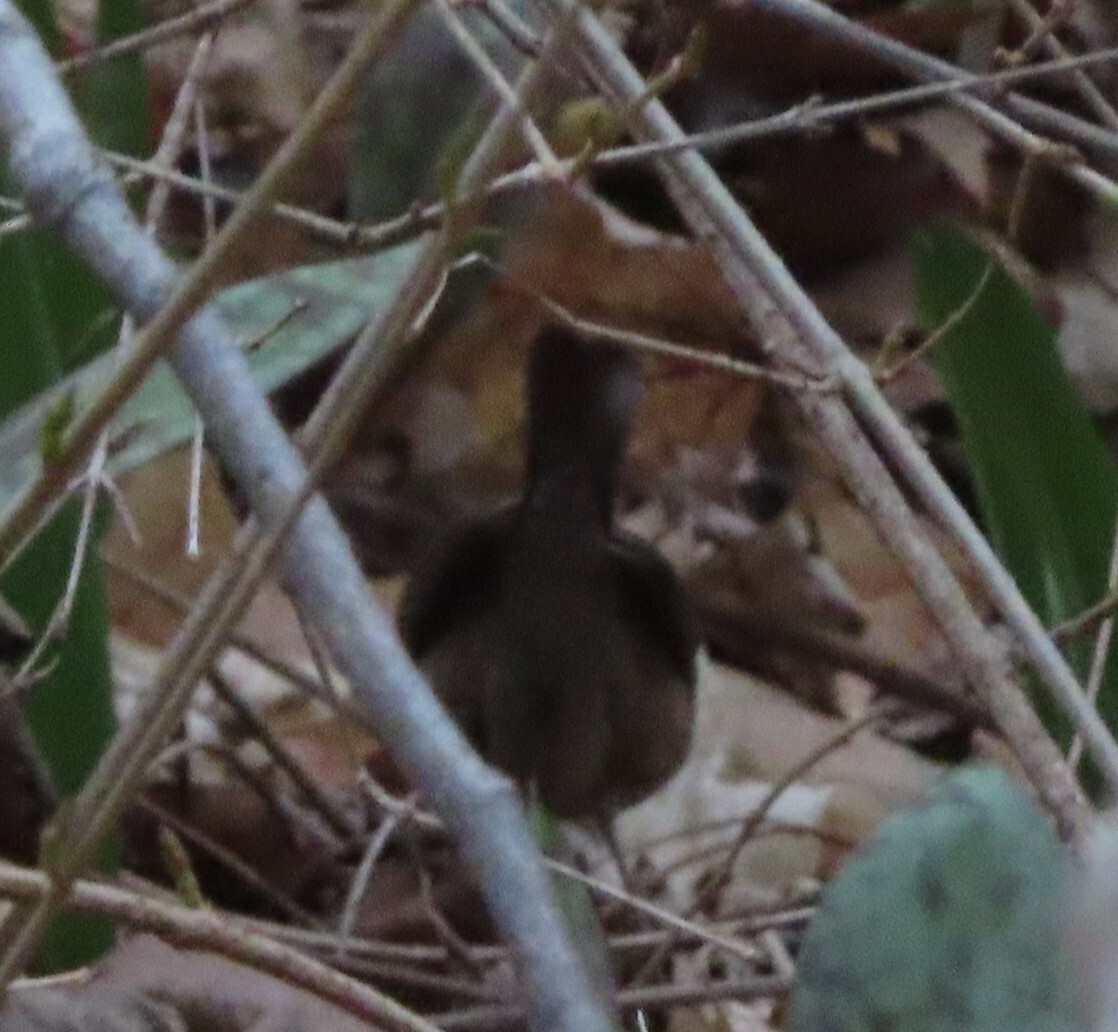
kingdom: Animalia
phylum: Chordata
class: Aves
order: Passeriformes
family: Troglodytidae
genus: Troglodytes
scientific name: Troglodytes hiemalis
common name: Winter wren
